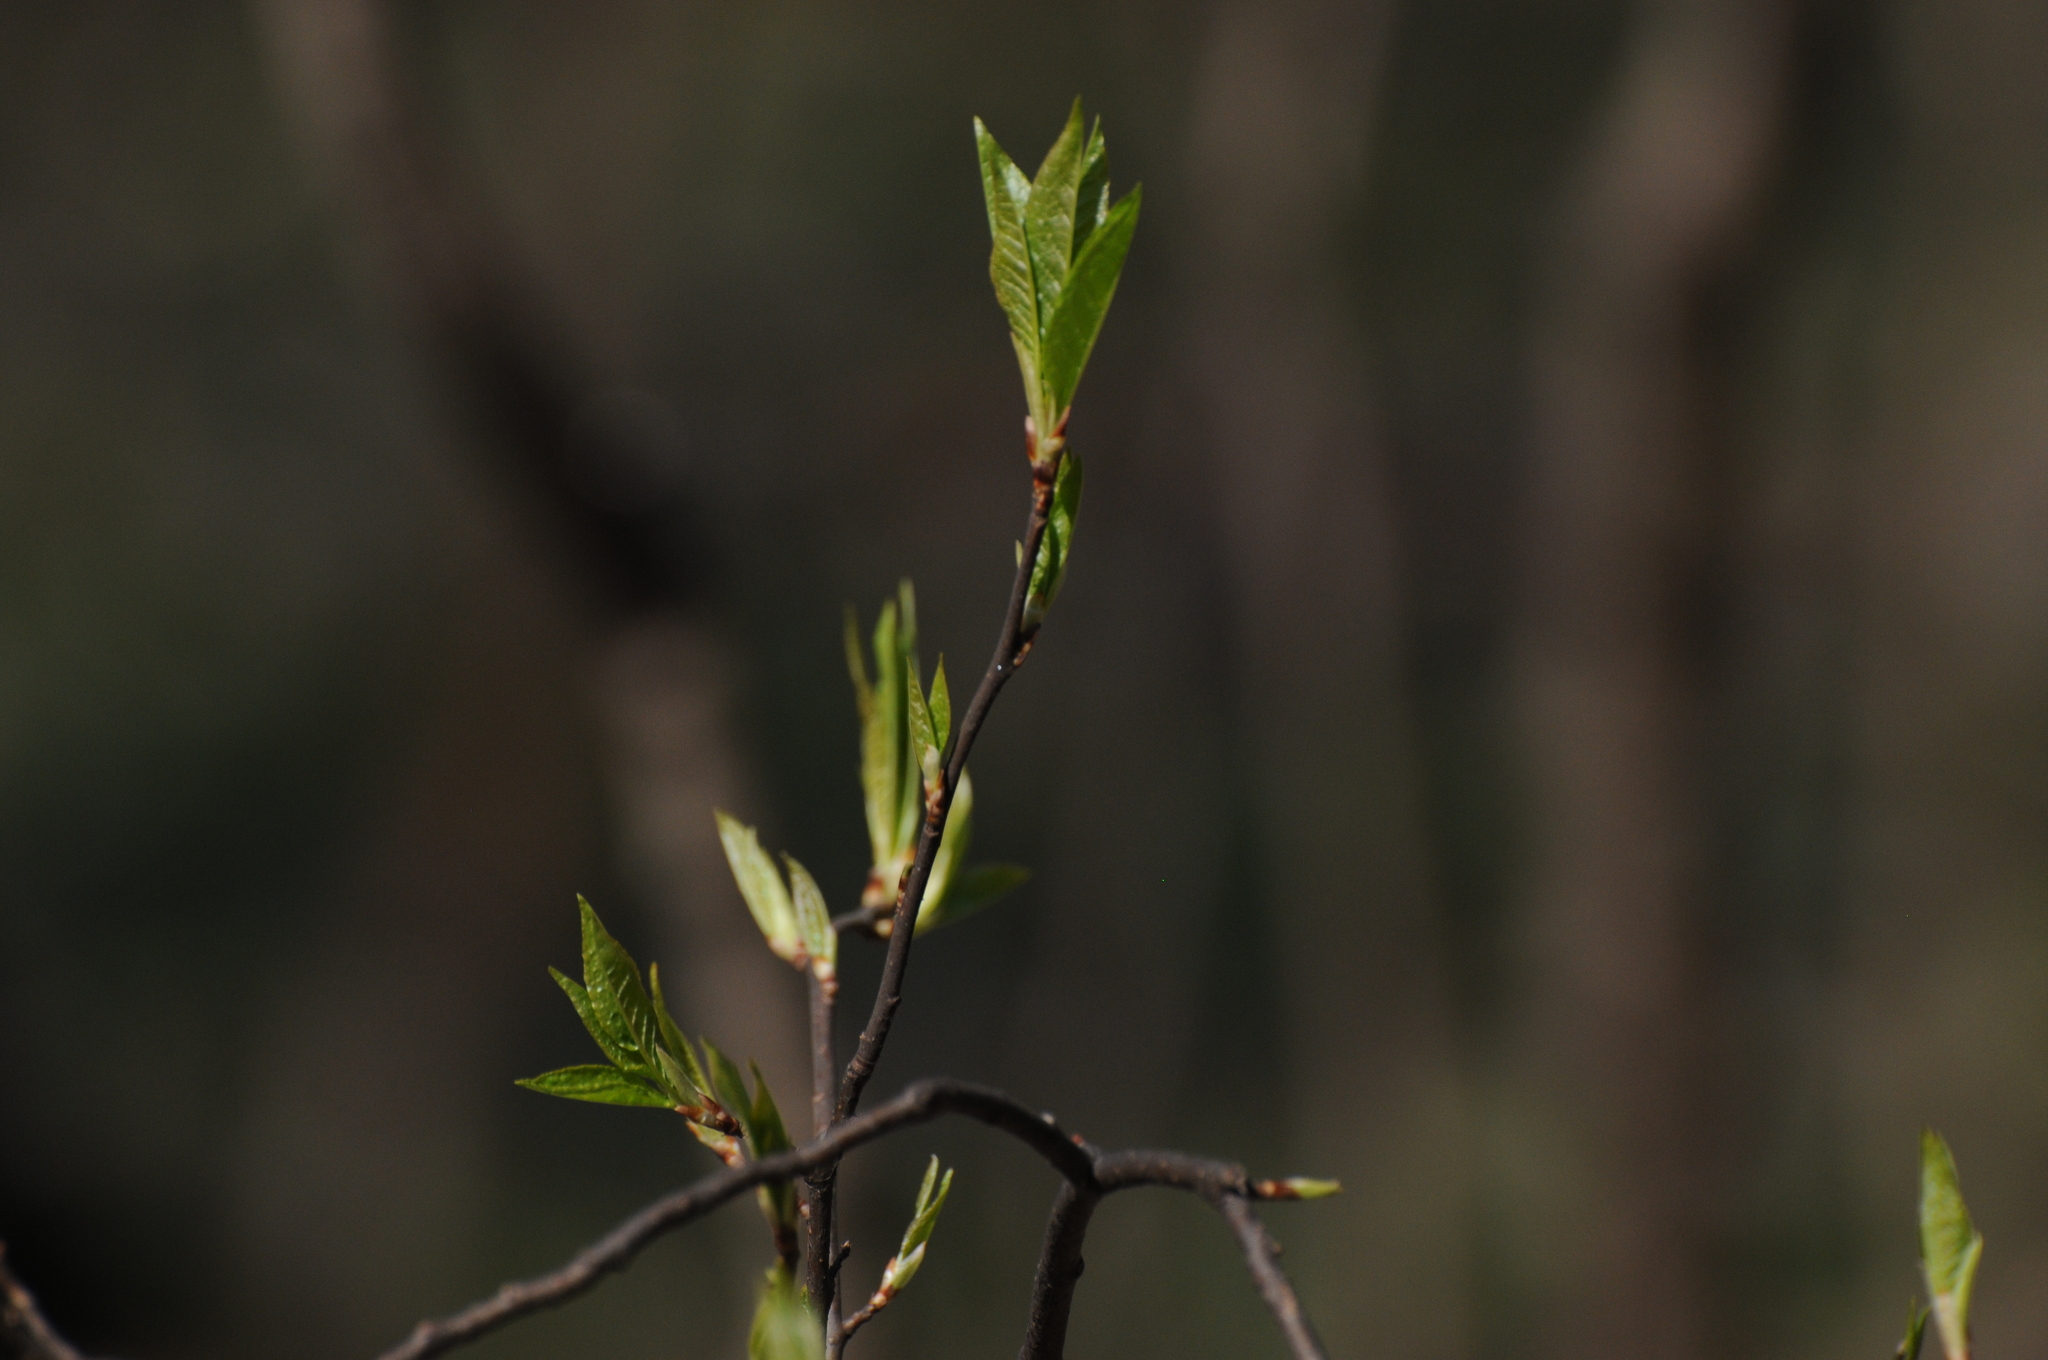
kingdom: Plantae
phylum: Tracheophyta
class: Magnoliopsida
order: Rosales
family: Rosaceae
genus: Prunus
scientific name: Prunus padus
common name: Bird cherry
